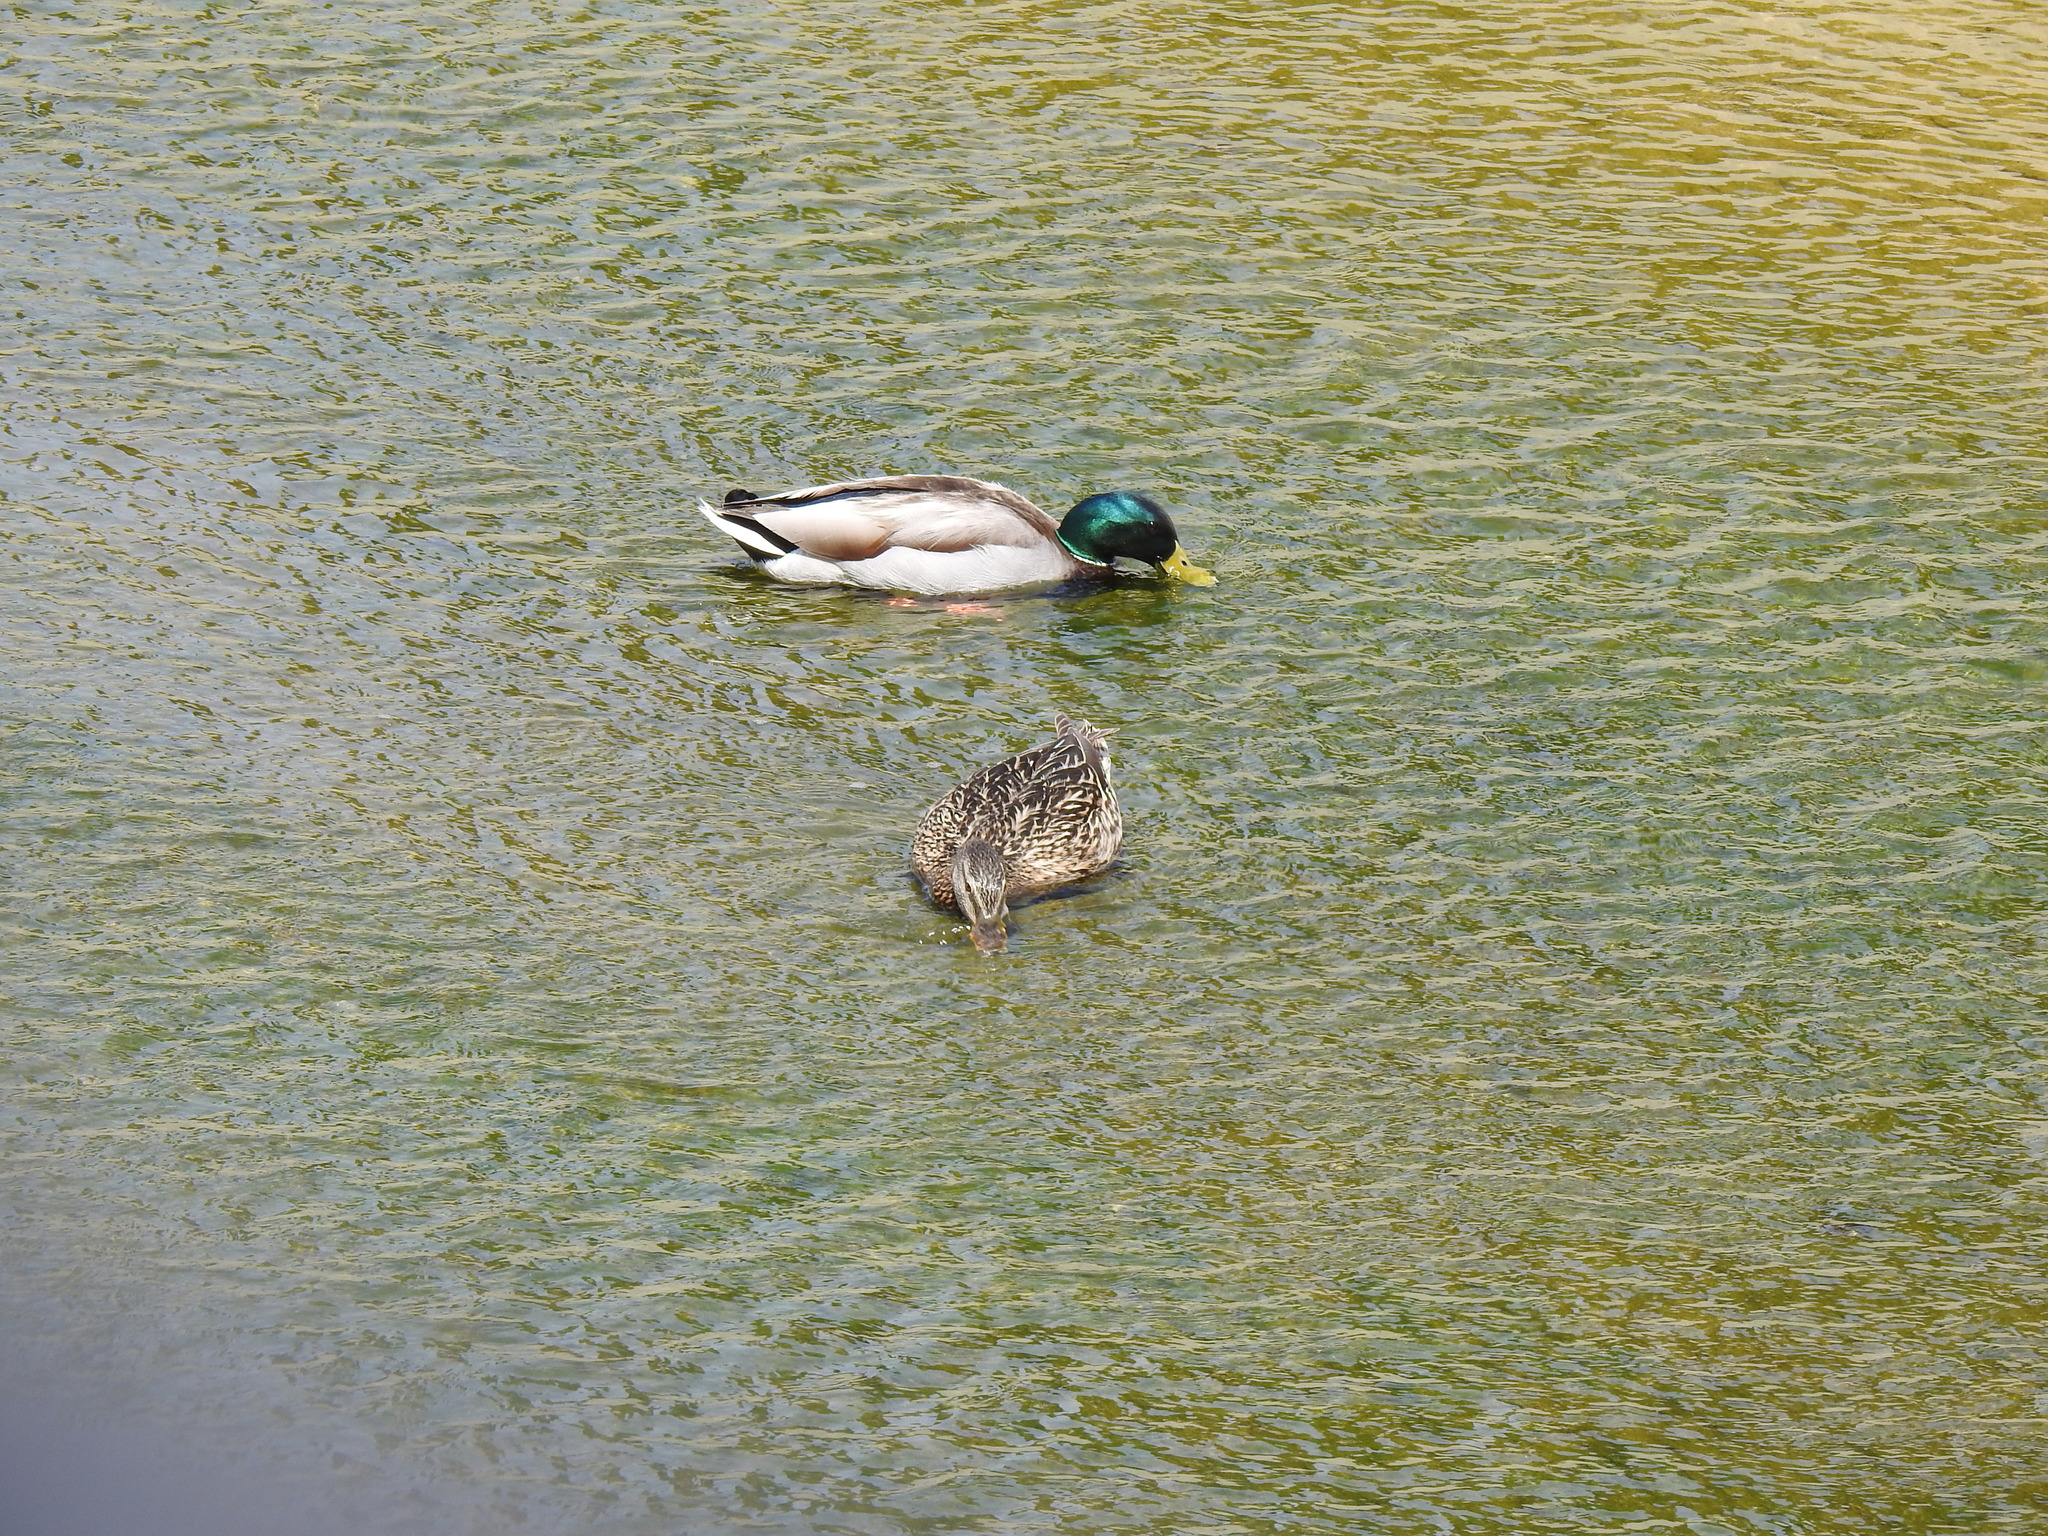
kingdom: Animalia
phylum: Chordata
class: Aves
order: Anseriformes
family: Anatidae
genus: Anas
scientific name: Anas platyrhynchos
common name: Mallard
